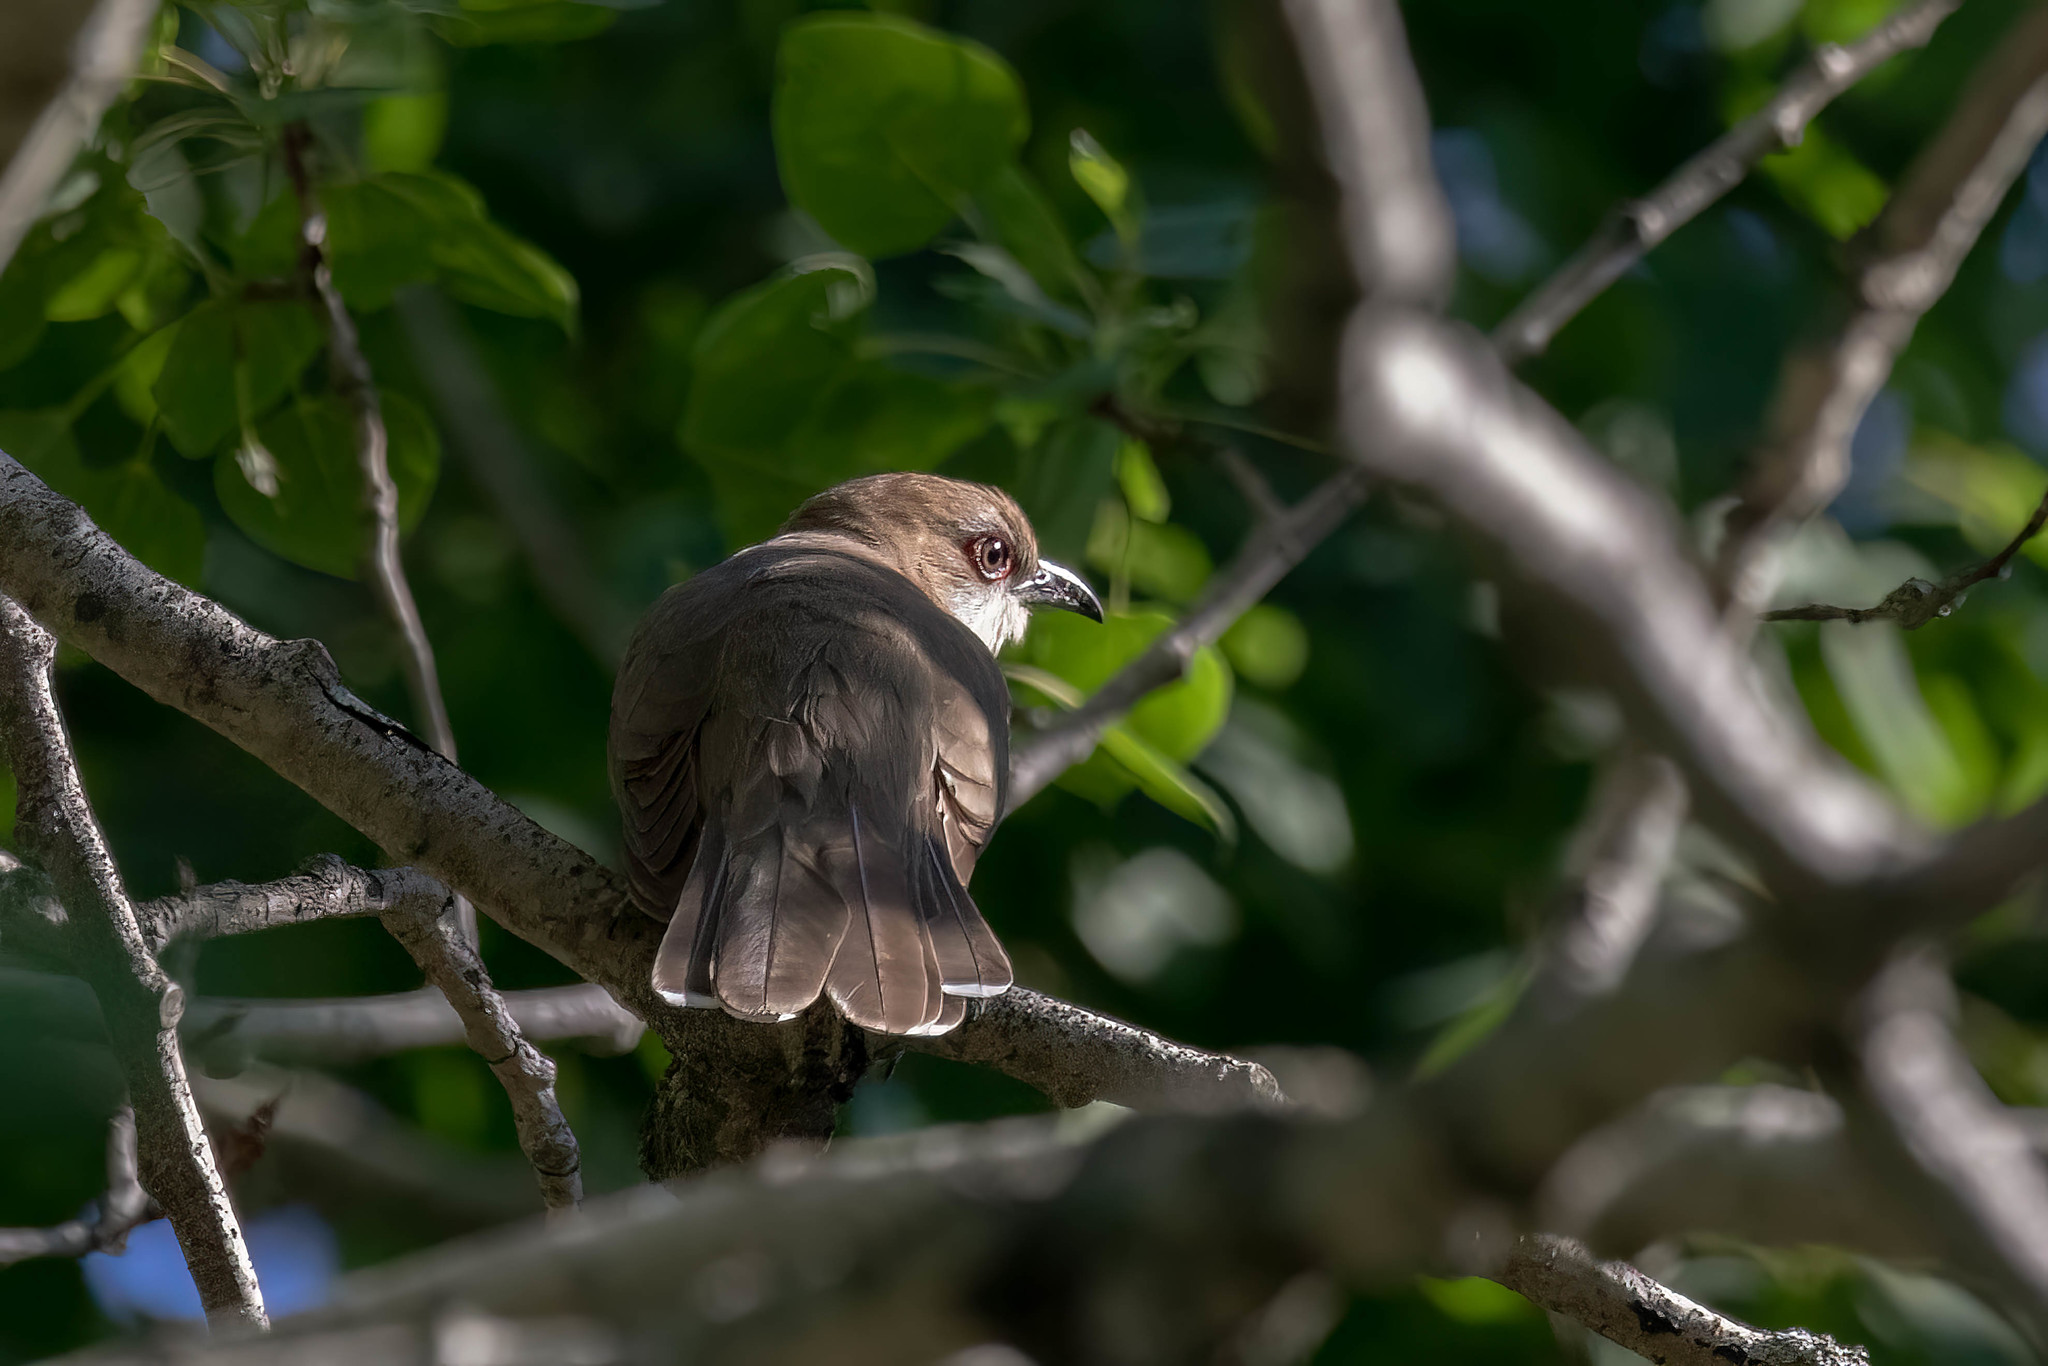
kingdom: Animalia
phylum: Chordata
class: Aves
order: Cuculiformes
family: Cuculidae
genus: Coccyzus
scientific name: Coccyzus erythropthalmus
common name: Black-billed cuckoo
